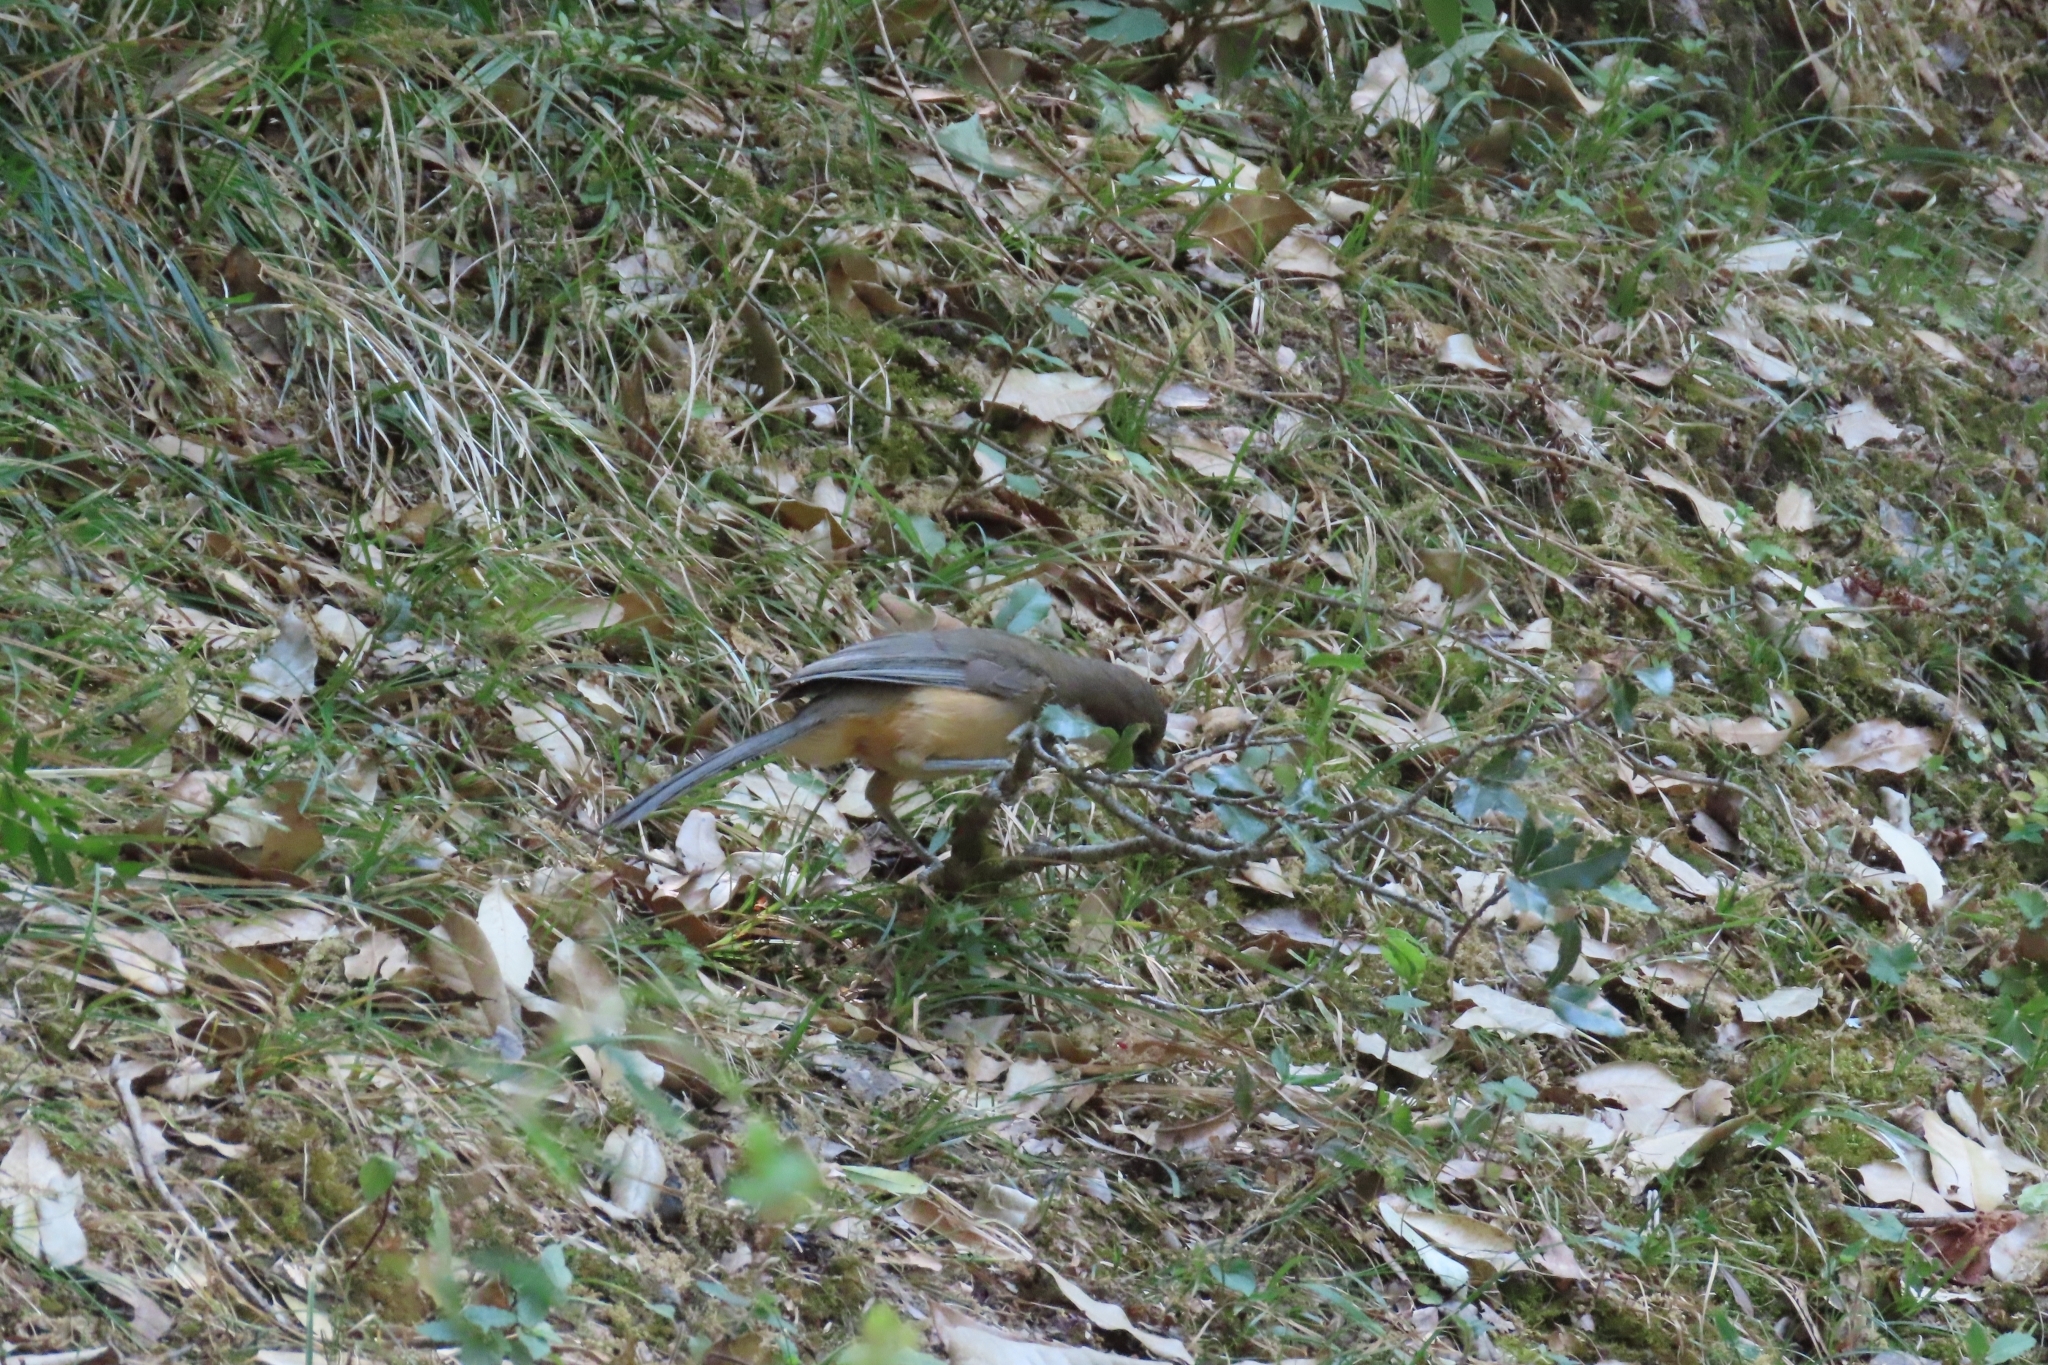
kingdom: Animalia
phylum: Chordata
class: Aves
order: Passeriformes
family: Leiothrichidae
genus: Garrulax
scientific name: Garrulax albogularis
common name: White-throated laughingthrush
